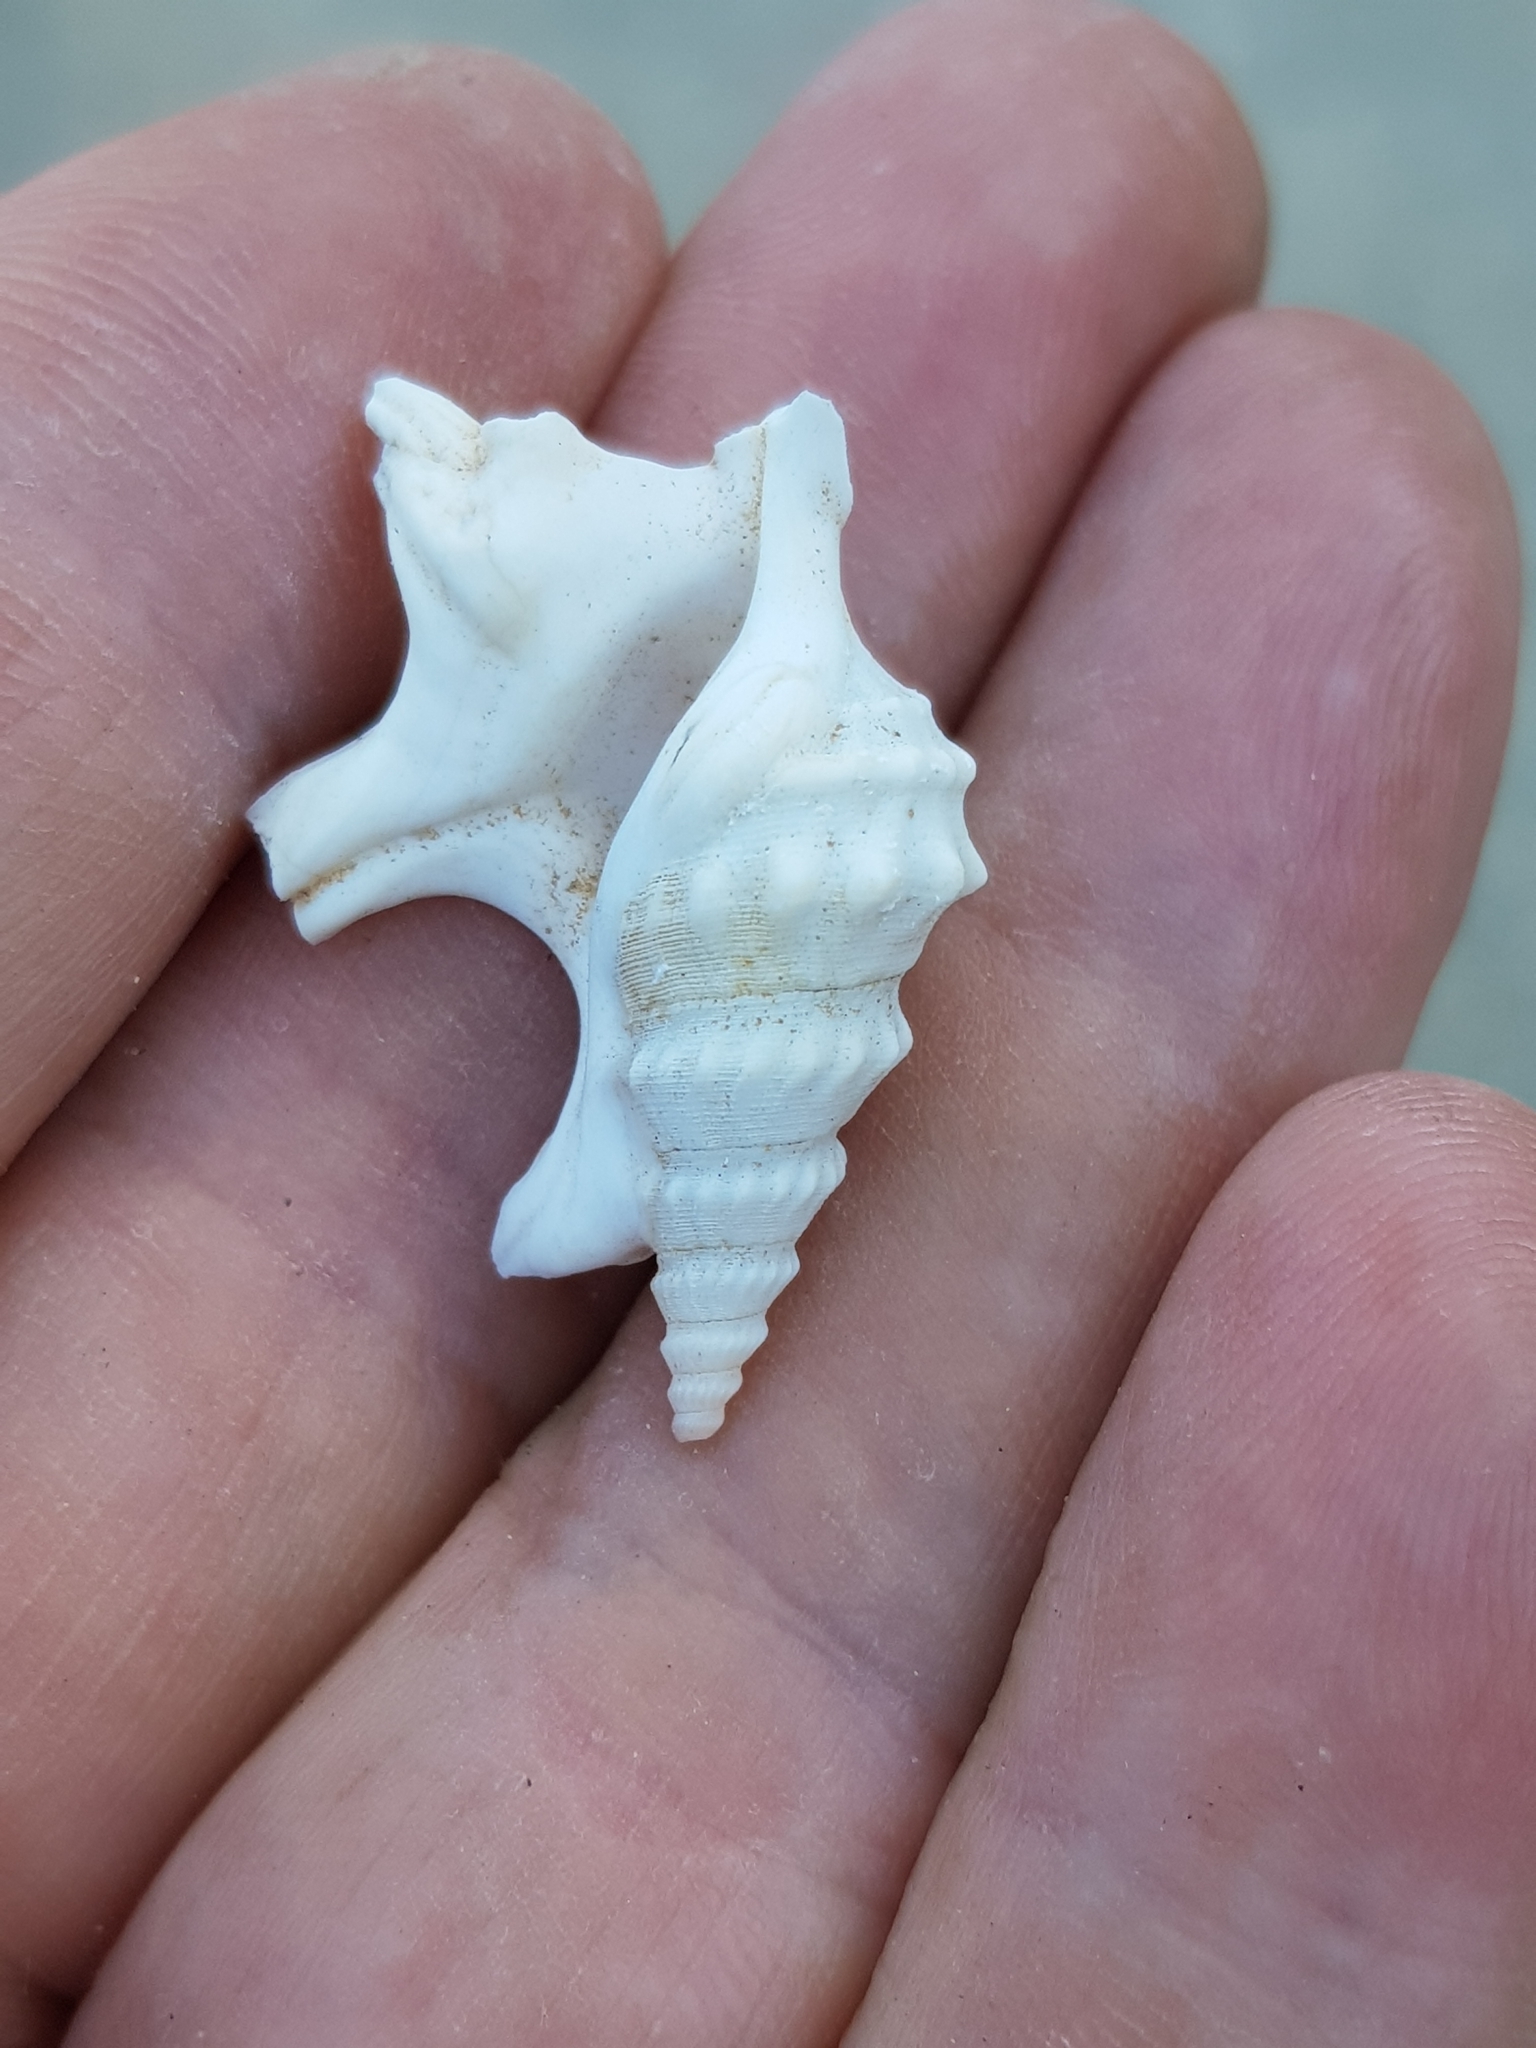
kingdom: Animalia
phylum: Mollusca
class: Gastropoda
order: Littorinimorpha
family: Aporrhaidae
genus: Aporrhais
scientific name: Aporrhais pespelecani
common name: Common pelican’s foot
